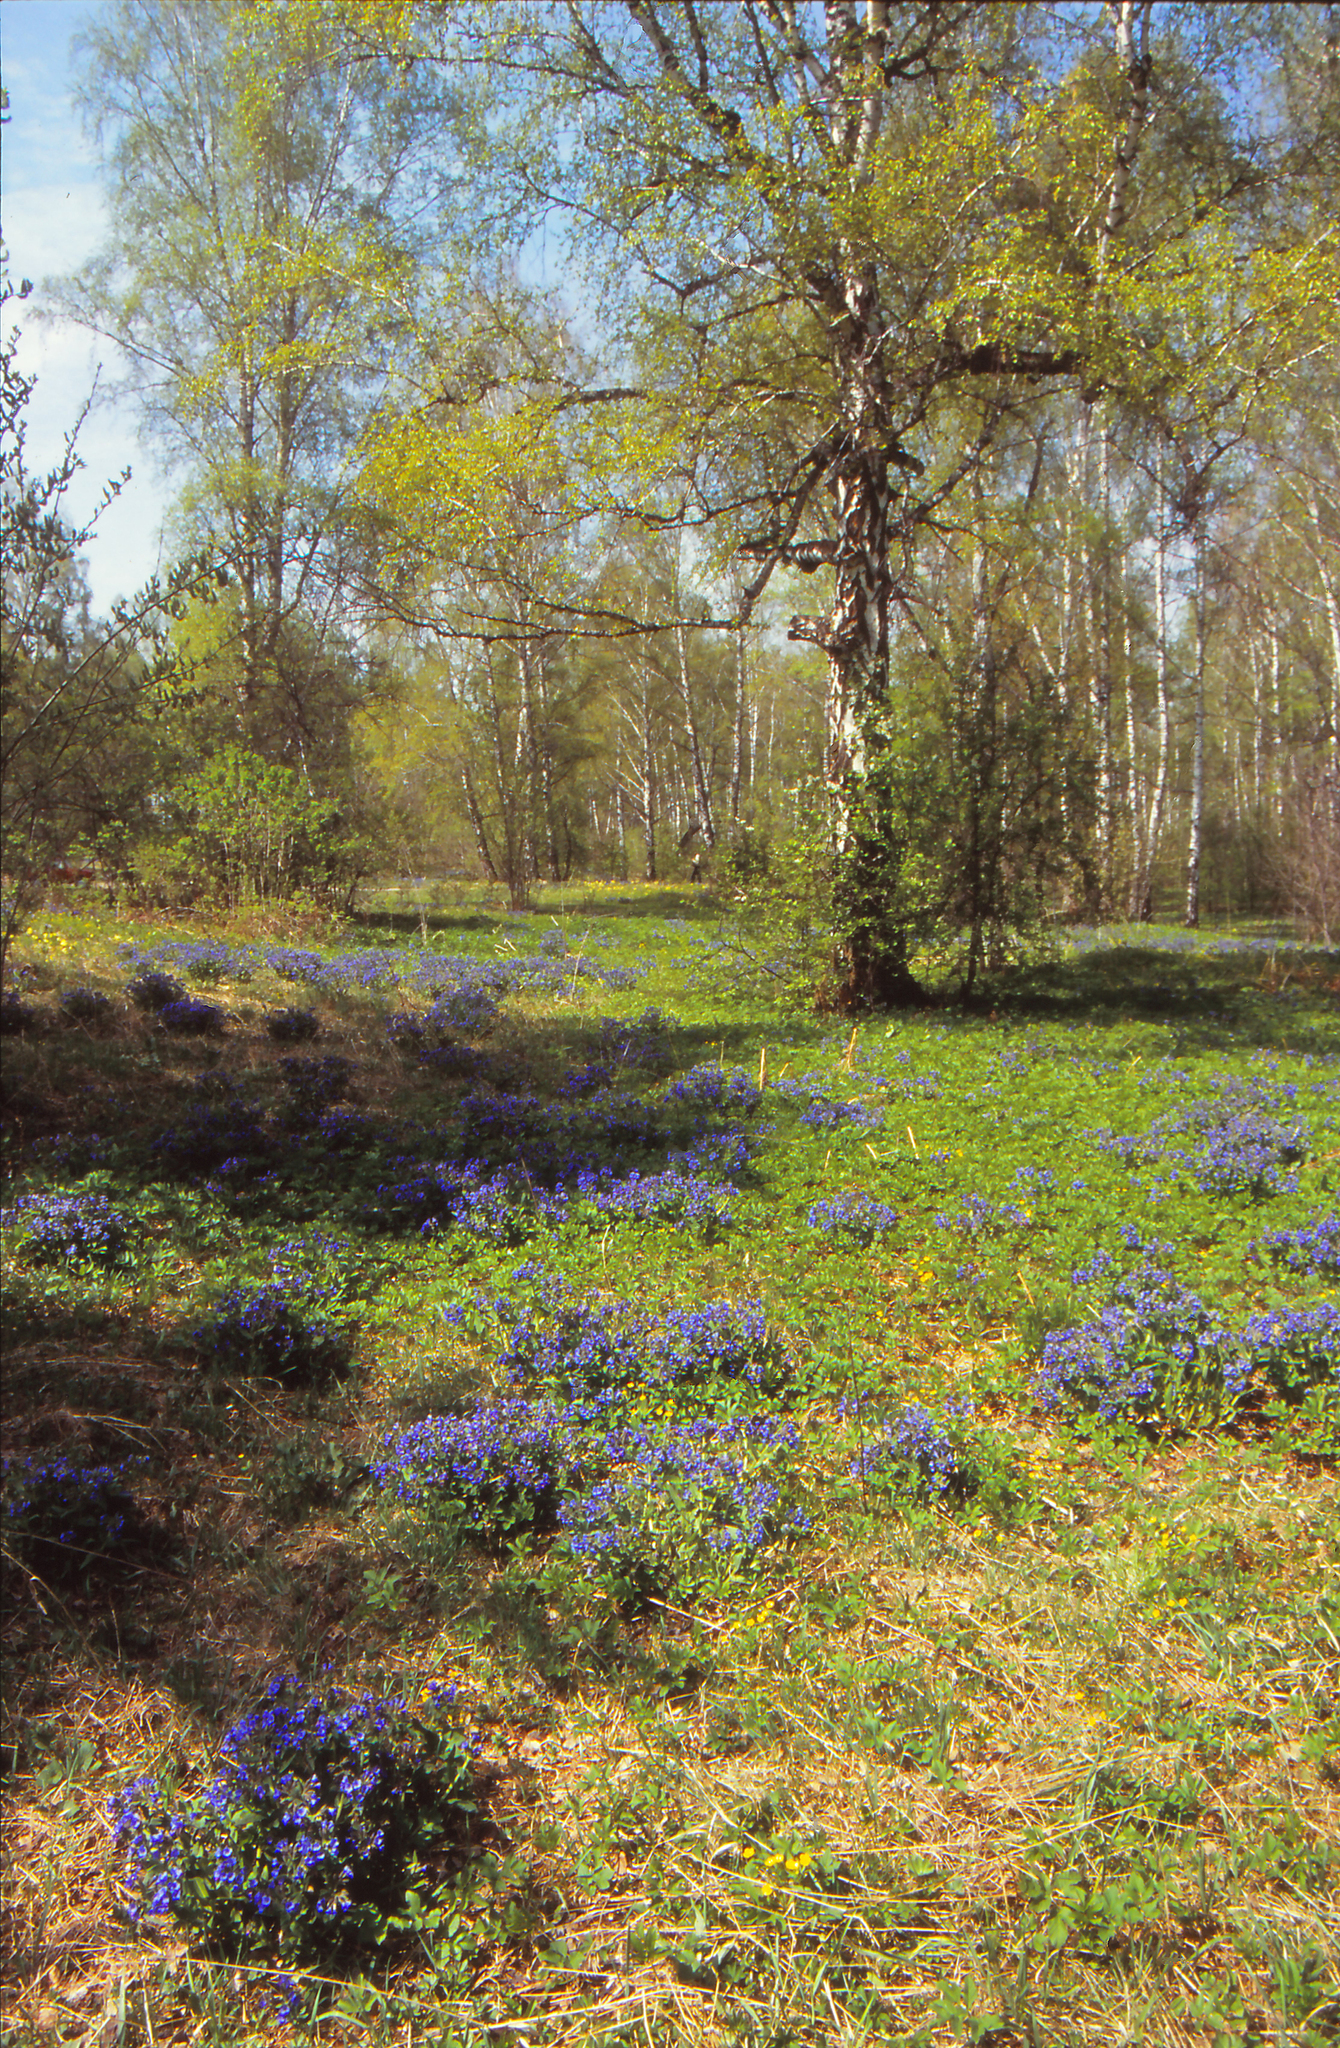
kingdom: Plantae
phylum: Tracheophyta
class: Magnoliopsida
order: Fagales
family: Betulaceae
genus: Betula
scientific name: Betula pendula
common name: Silver birch
